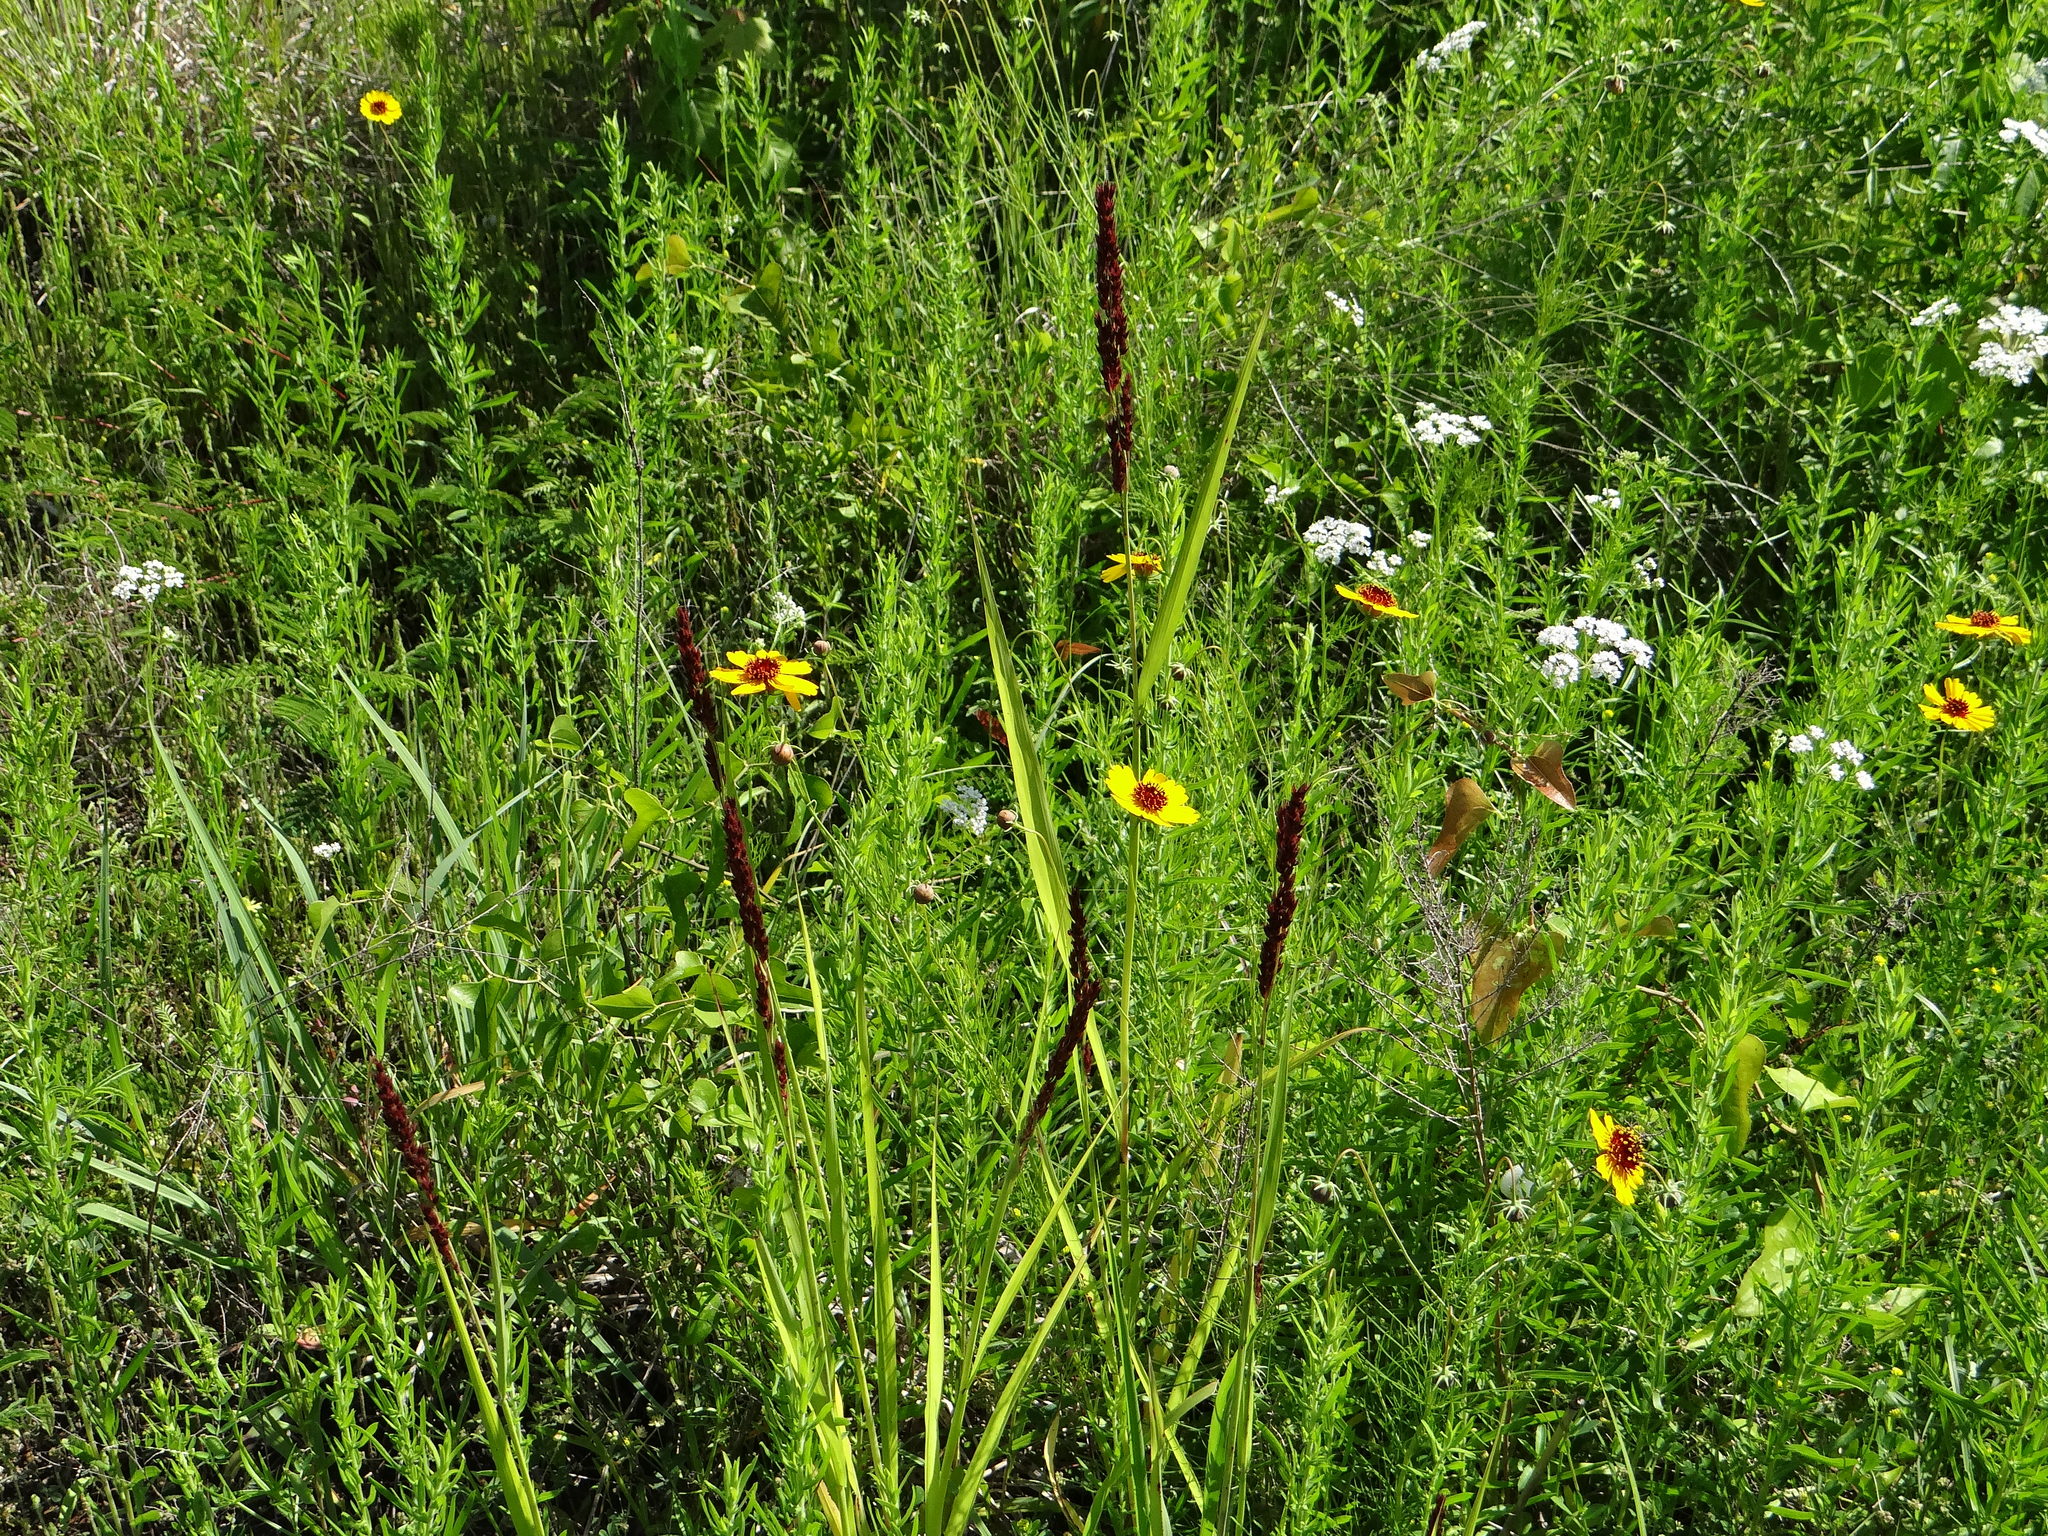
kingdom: Plantae
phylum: Tracheophyta
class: Liliopsida
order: Poales
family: Poaceae
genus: Sorghum
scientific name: Sorghum halepense
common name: Johnson-grass
